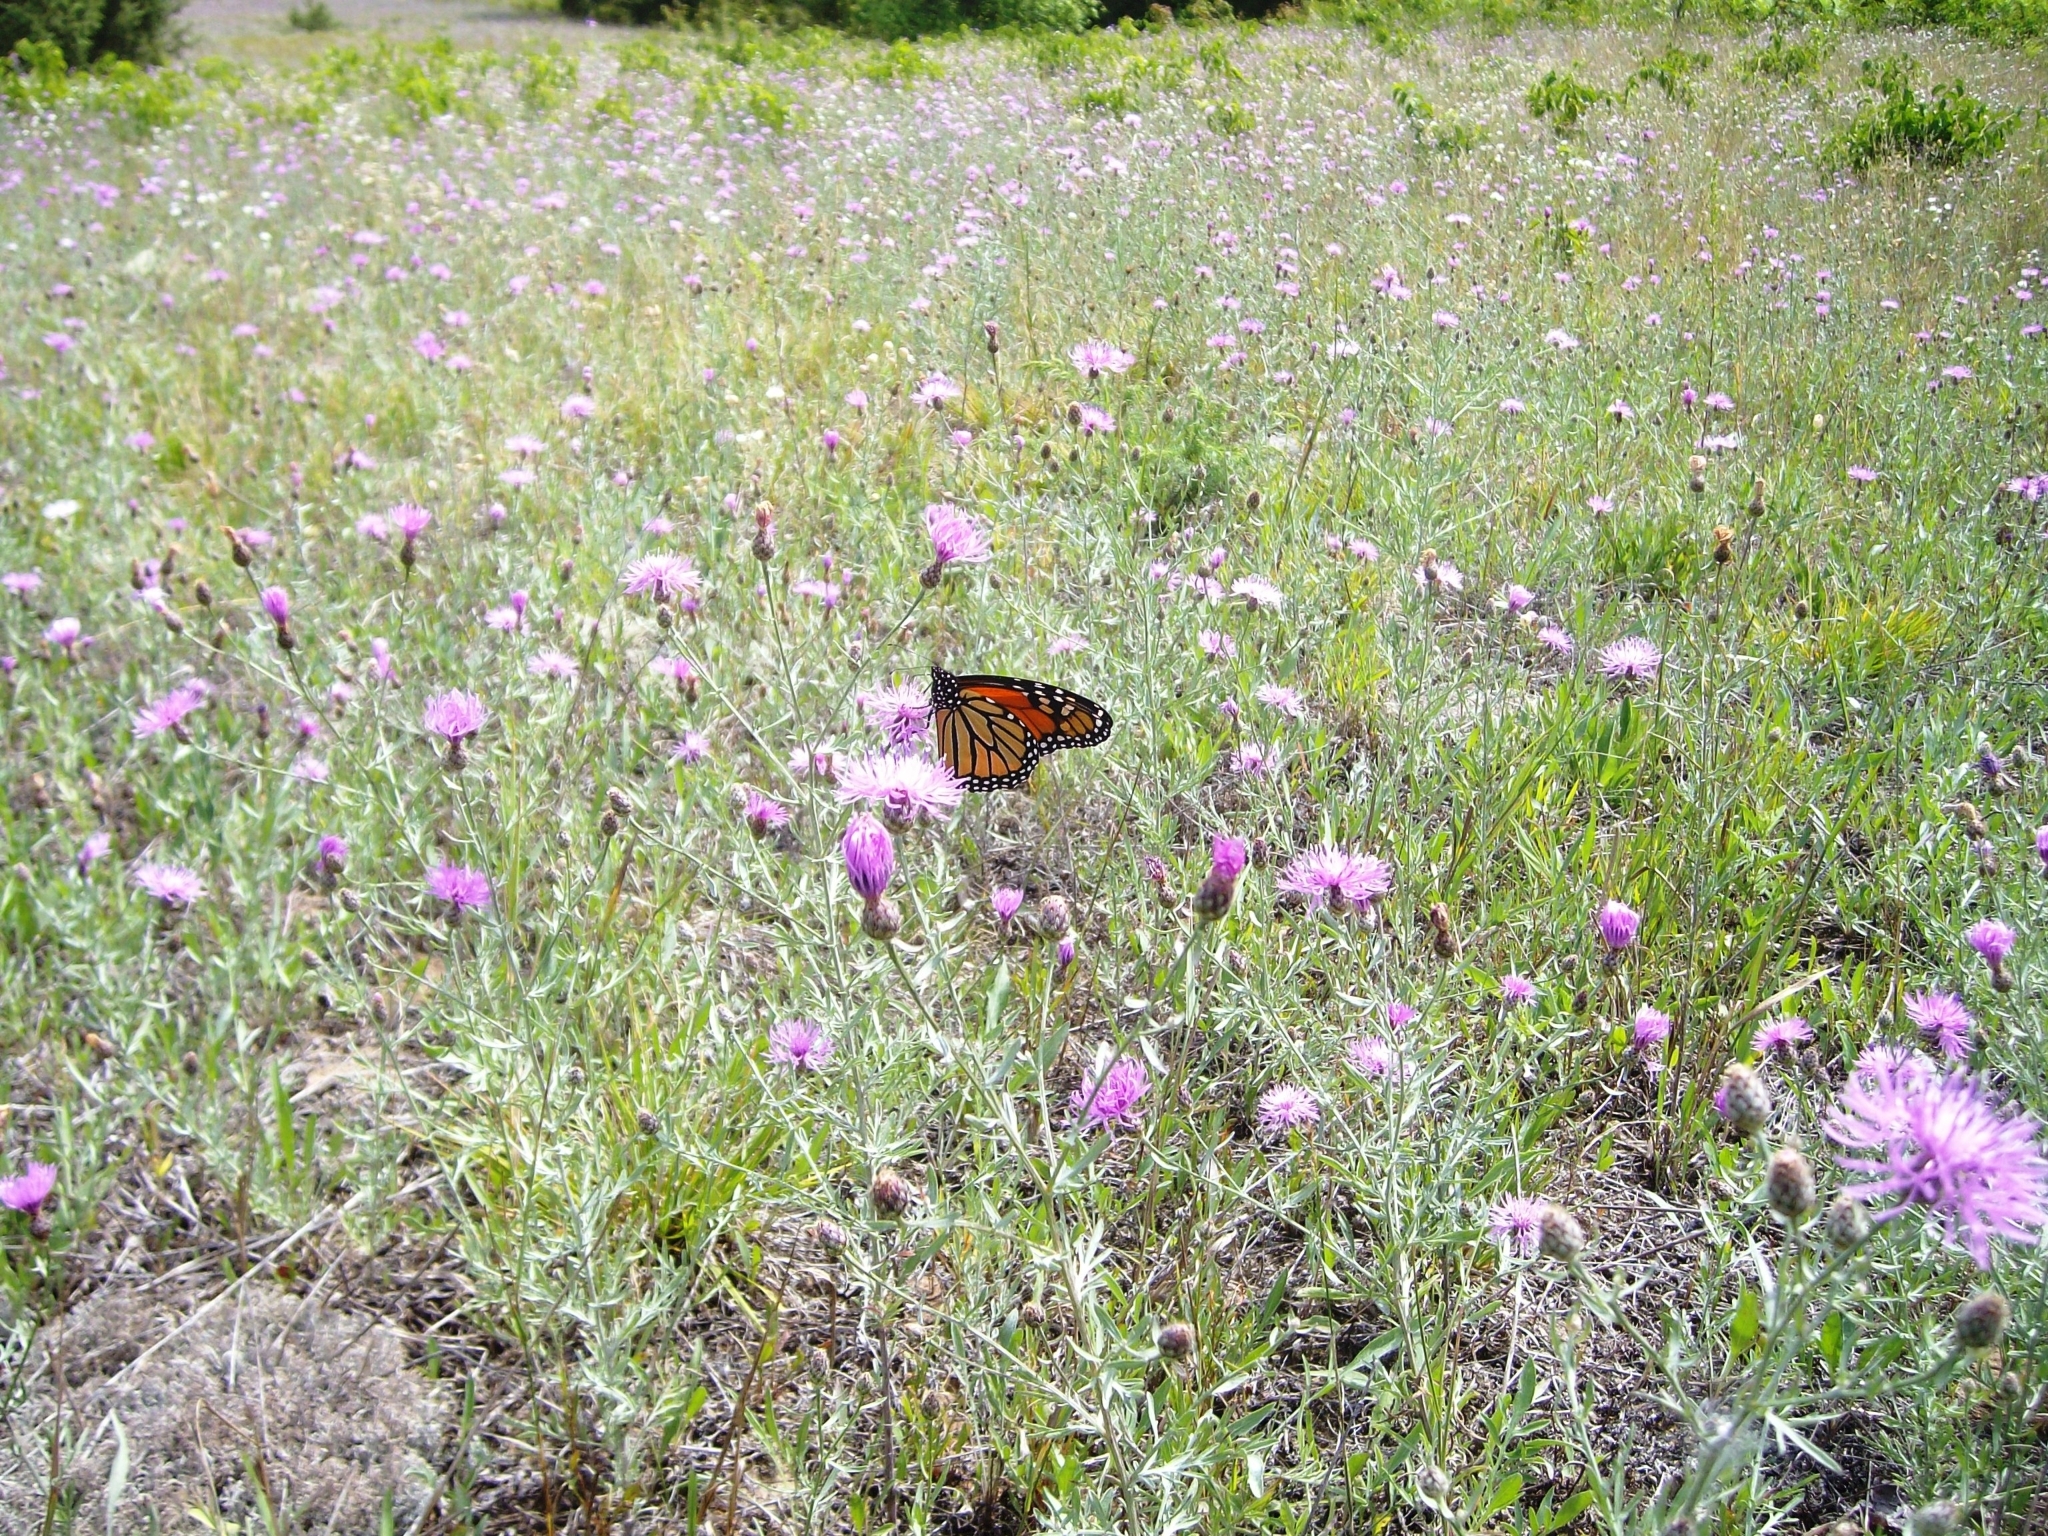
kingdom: Animalia
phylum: Arthropoda
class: Insecta
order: Lepidoptera
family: Nymphalidae
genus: Danaus
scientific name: Danaus plexippus
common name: Monarch
